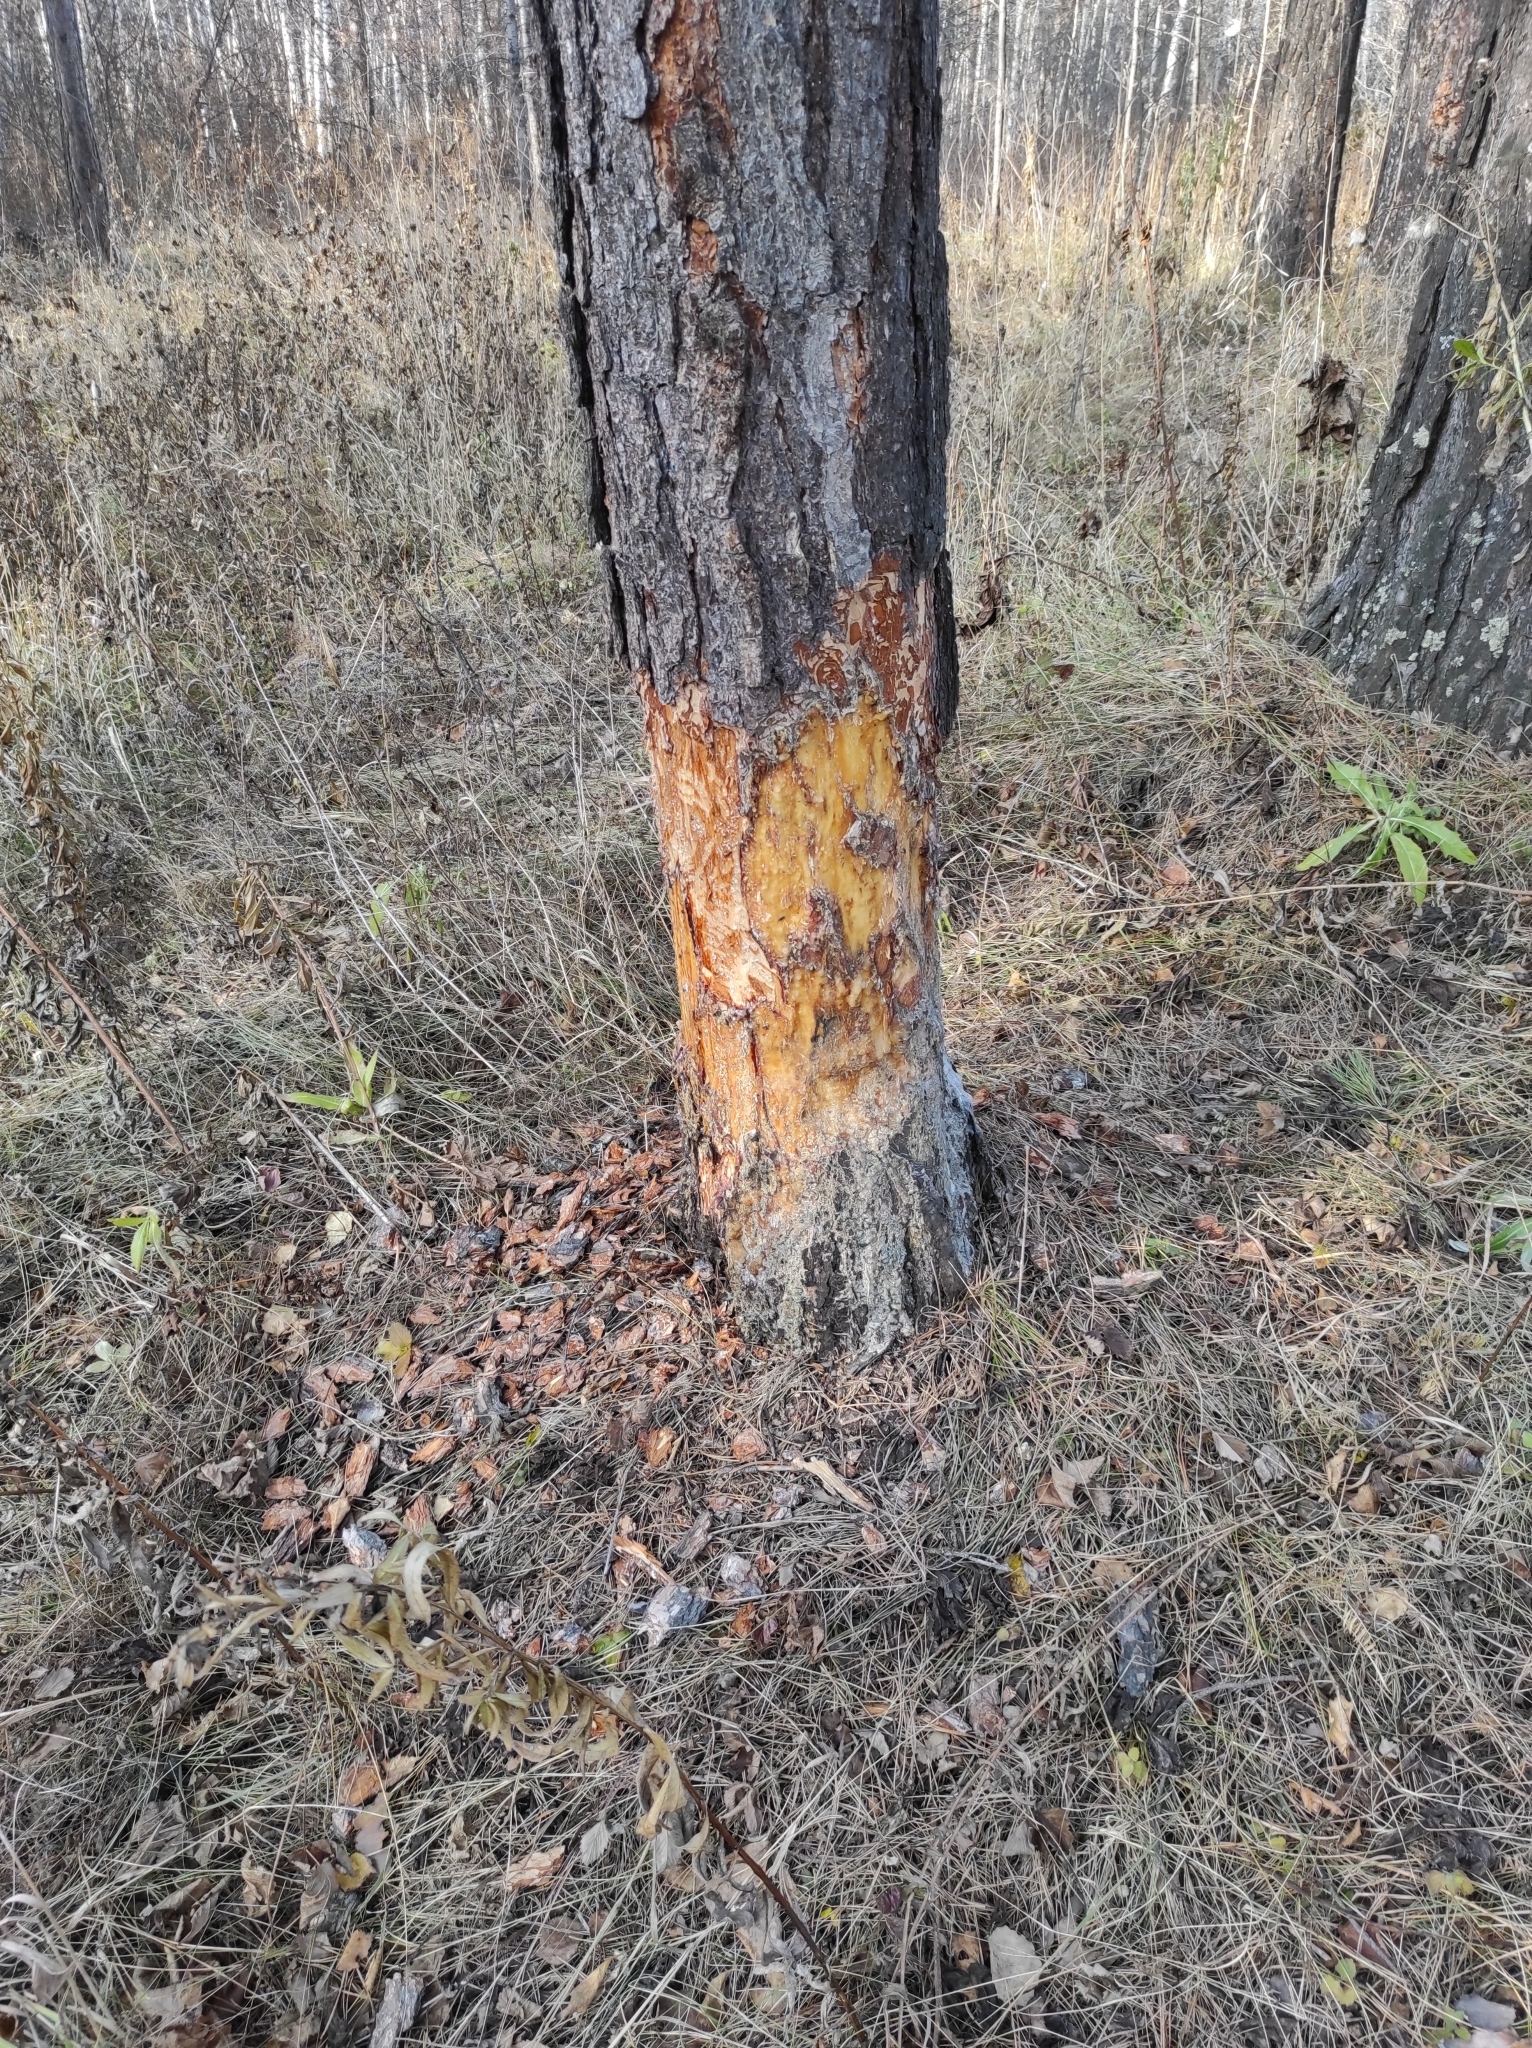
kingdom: Plantae
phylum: Tracheophyta
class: Pinopsida
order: Pinales
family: Pinaceae
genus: Pinus
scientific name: Pinus sylvestris
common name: Scots pine
